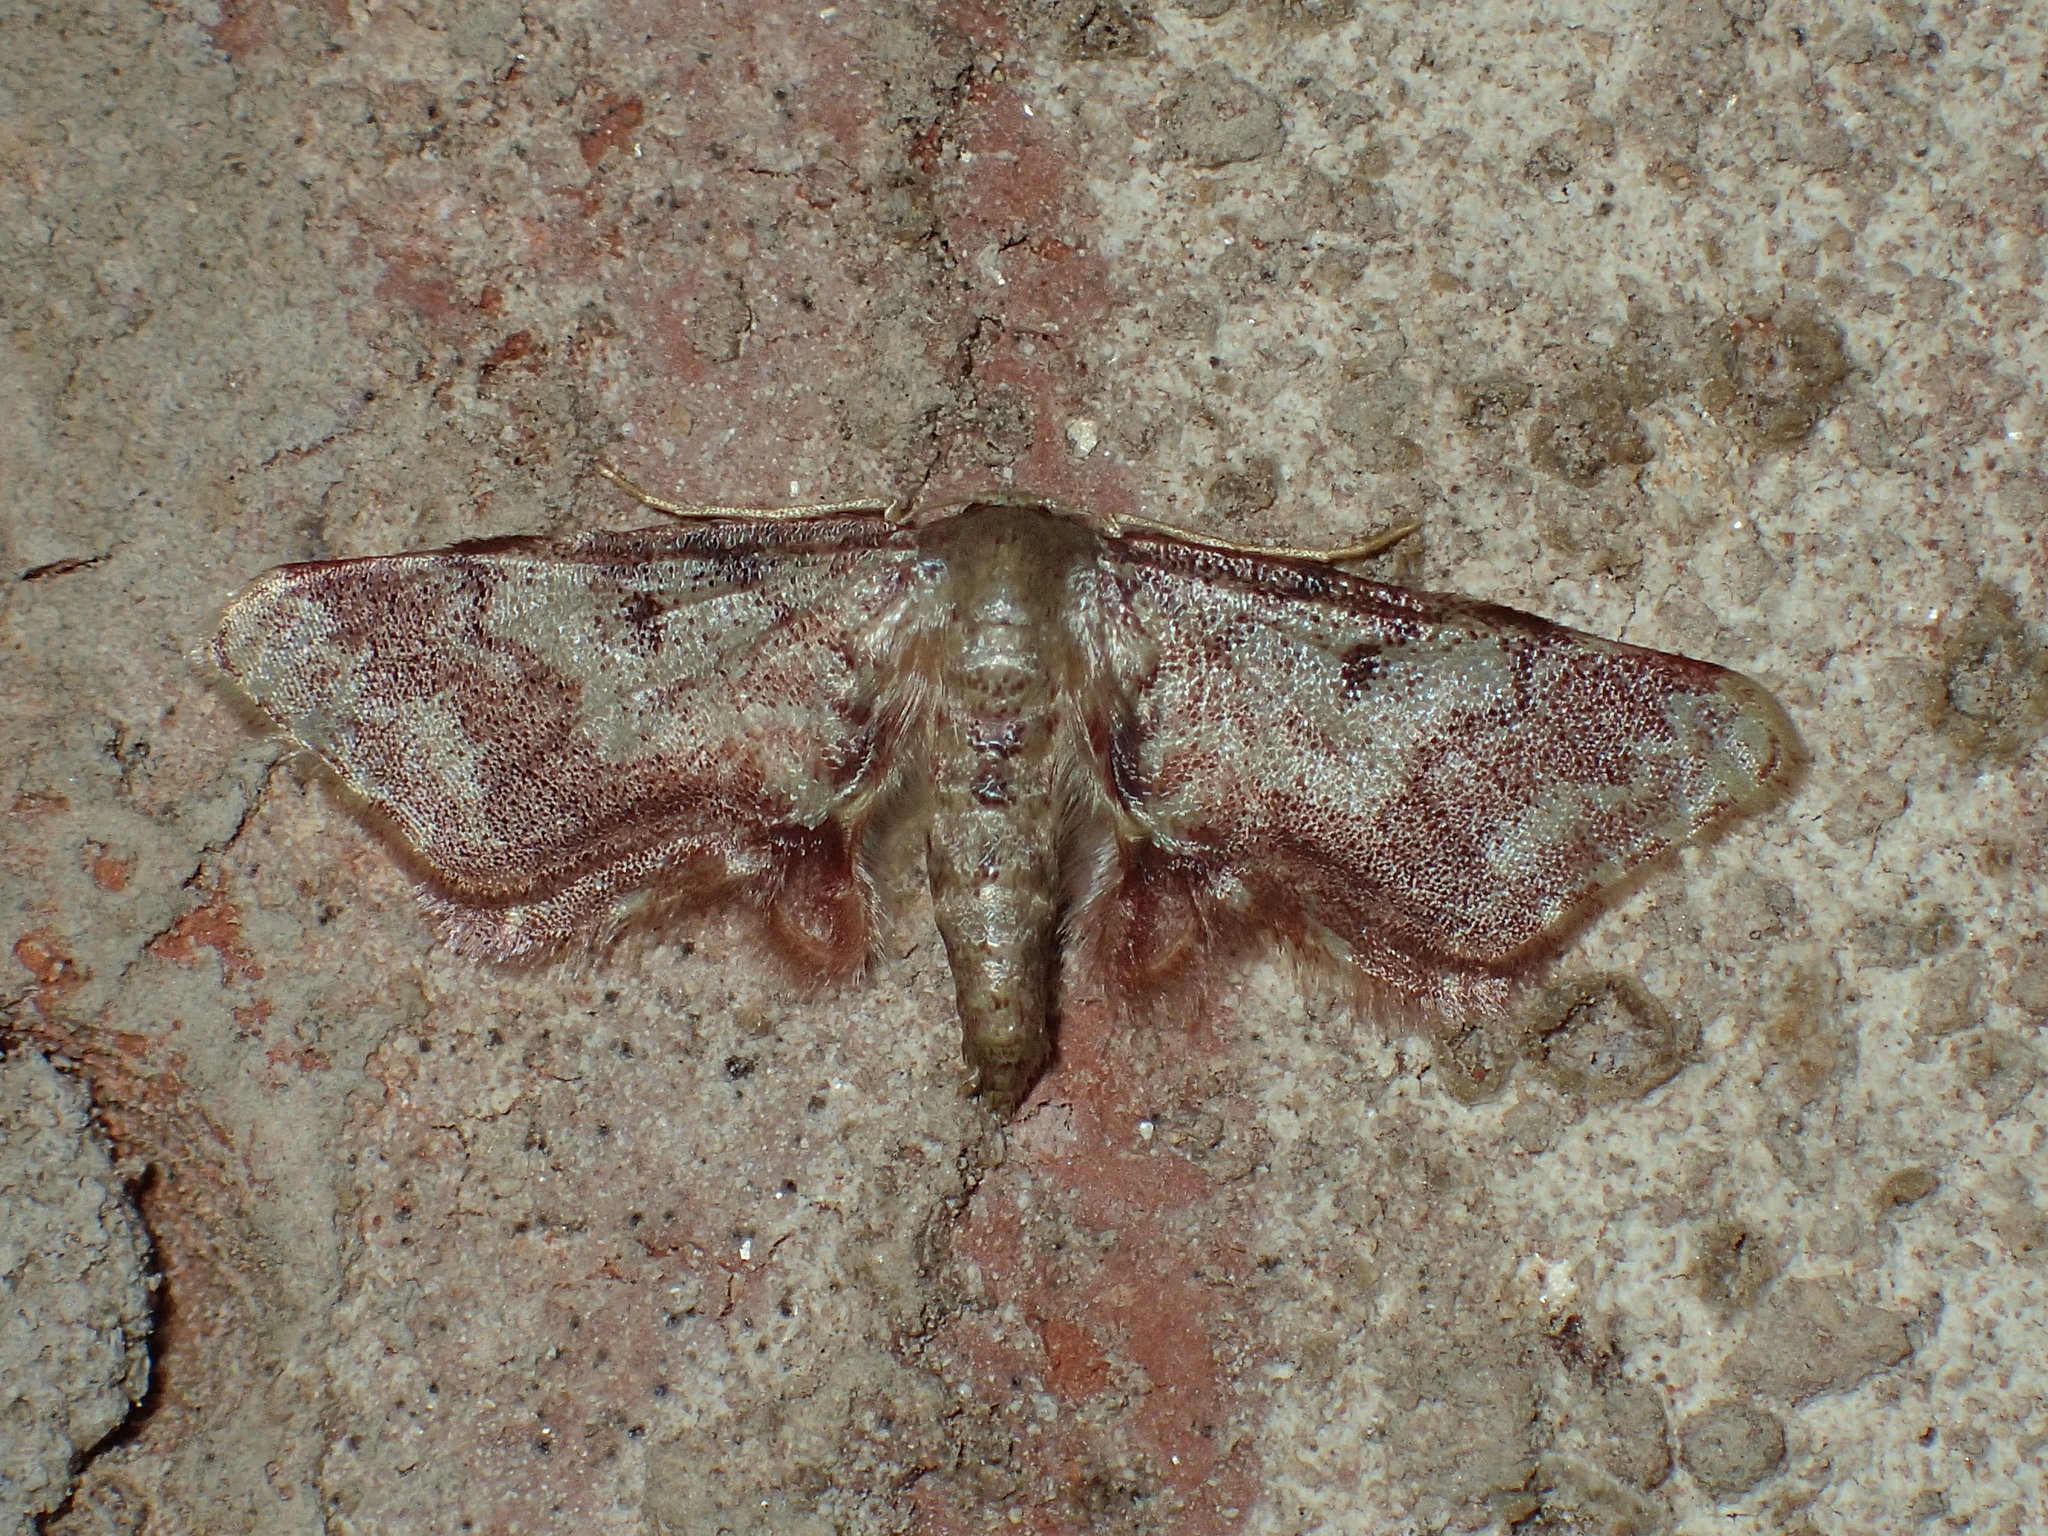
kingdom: Animalia
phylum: Arthropoda
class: Insecta
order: Lepidoptera
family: Geometridae
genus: Idaea
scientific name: Idaea furciferata
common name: Notch-winged wave
